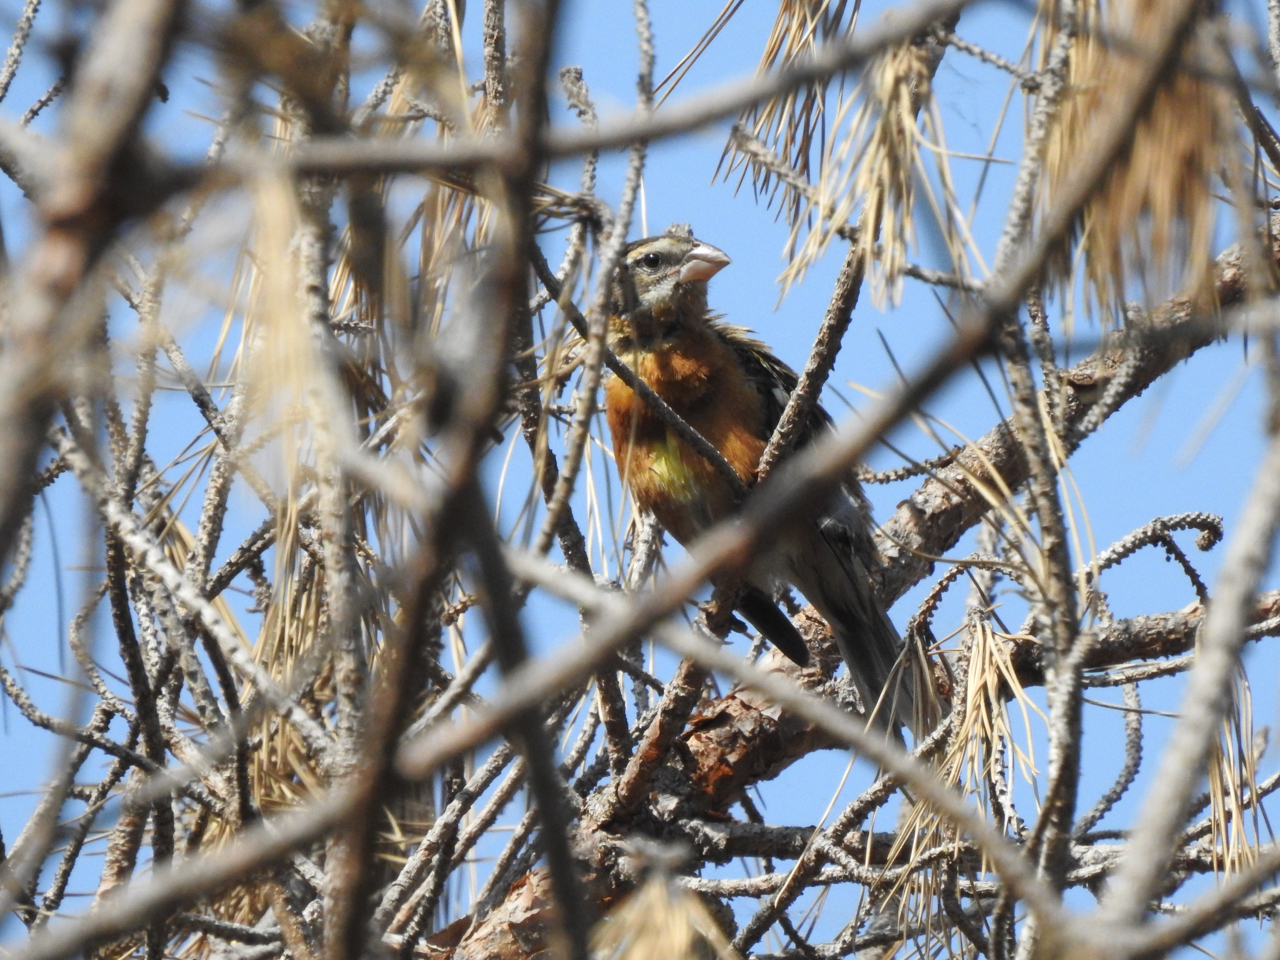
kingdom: Animalia
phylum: Chordata
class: Aves
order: Passeriformes
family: Cardinalidae
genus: Pheucticus
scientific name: Pheucticus melanocephalus
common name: Black-headed grosbeak
